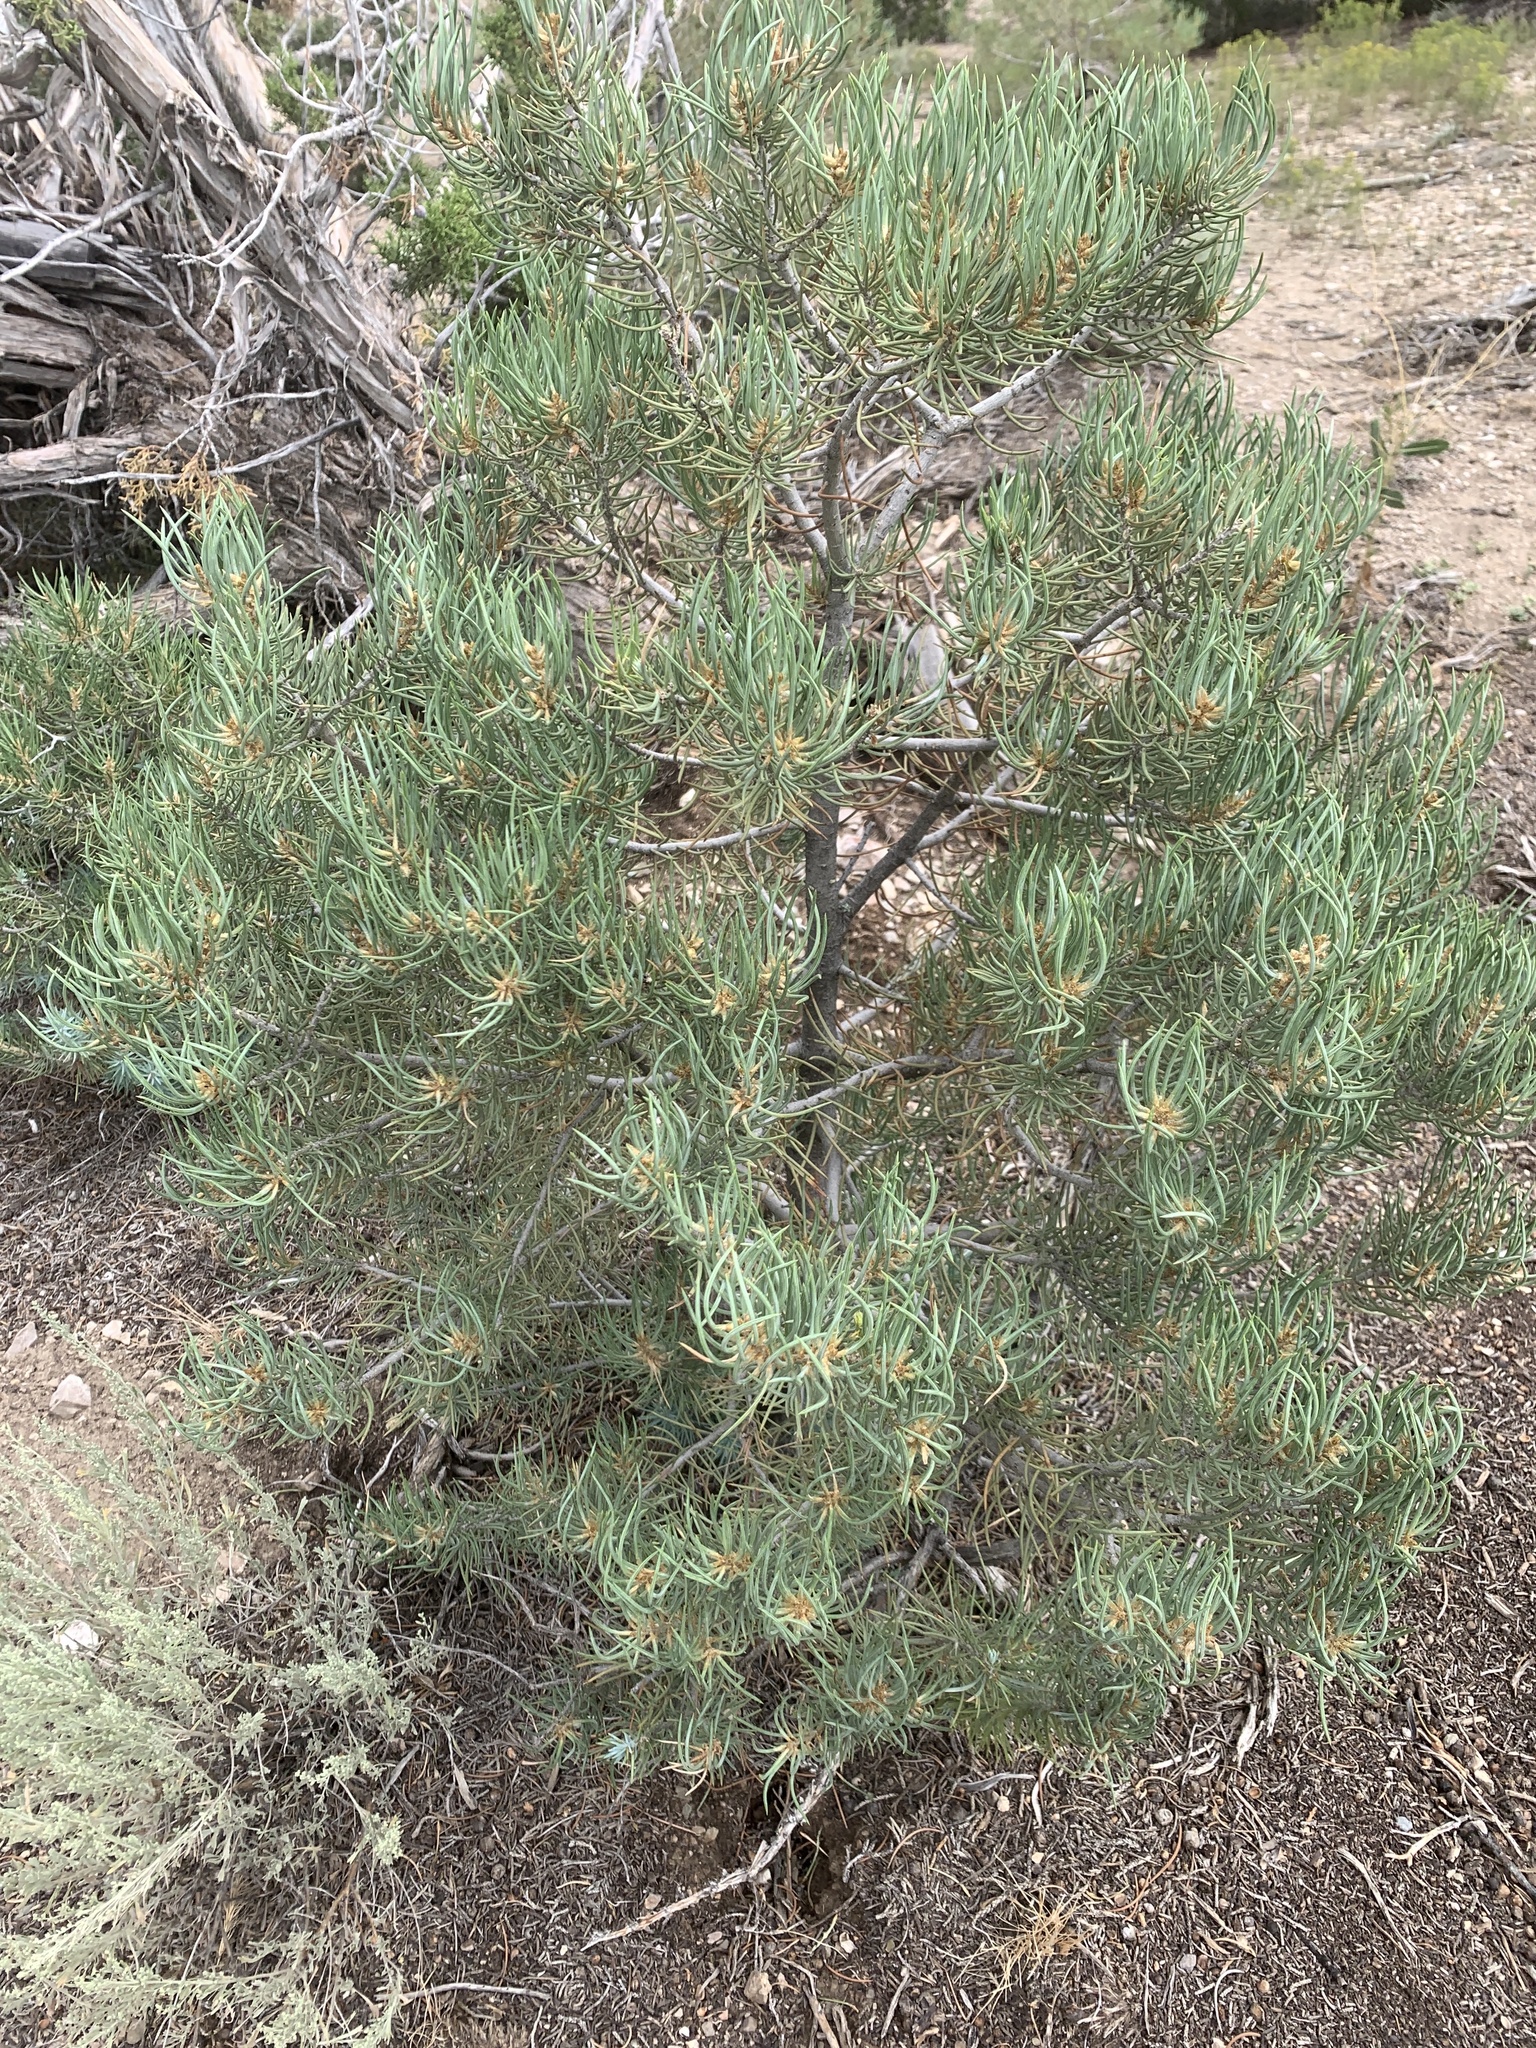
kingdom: Plantae
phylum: Tracheophyta
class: Pinopsida
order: Pinales
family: Pinaceae
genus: Pinus
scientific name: Pinus monophylla
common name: One-leaved nut pine
